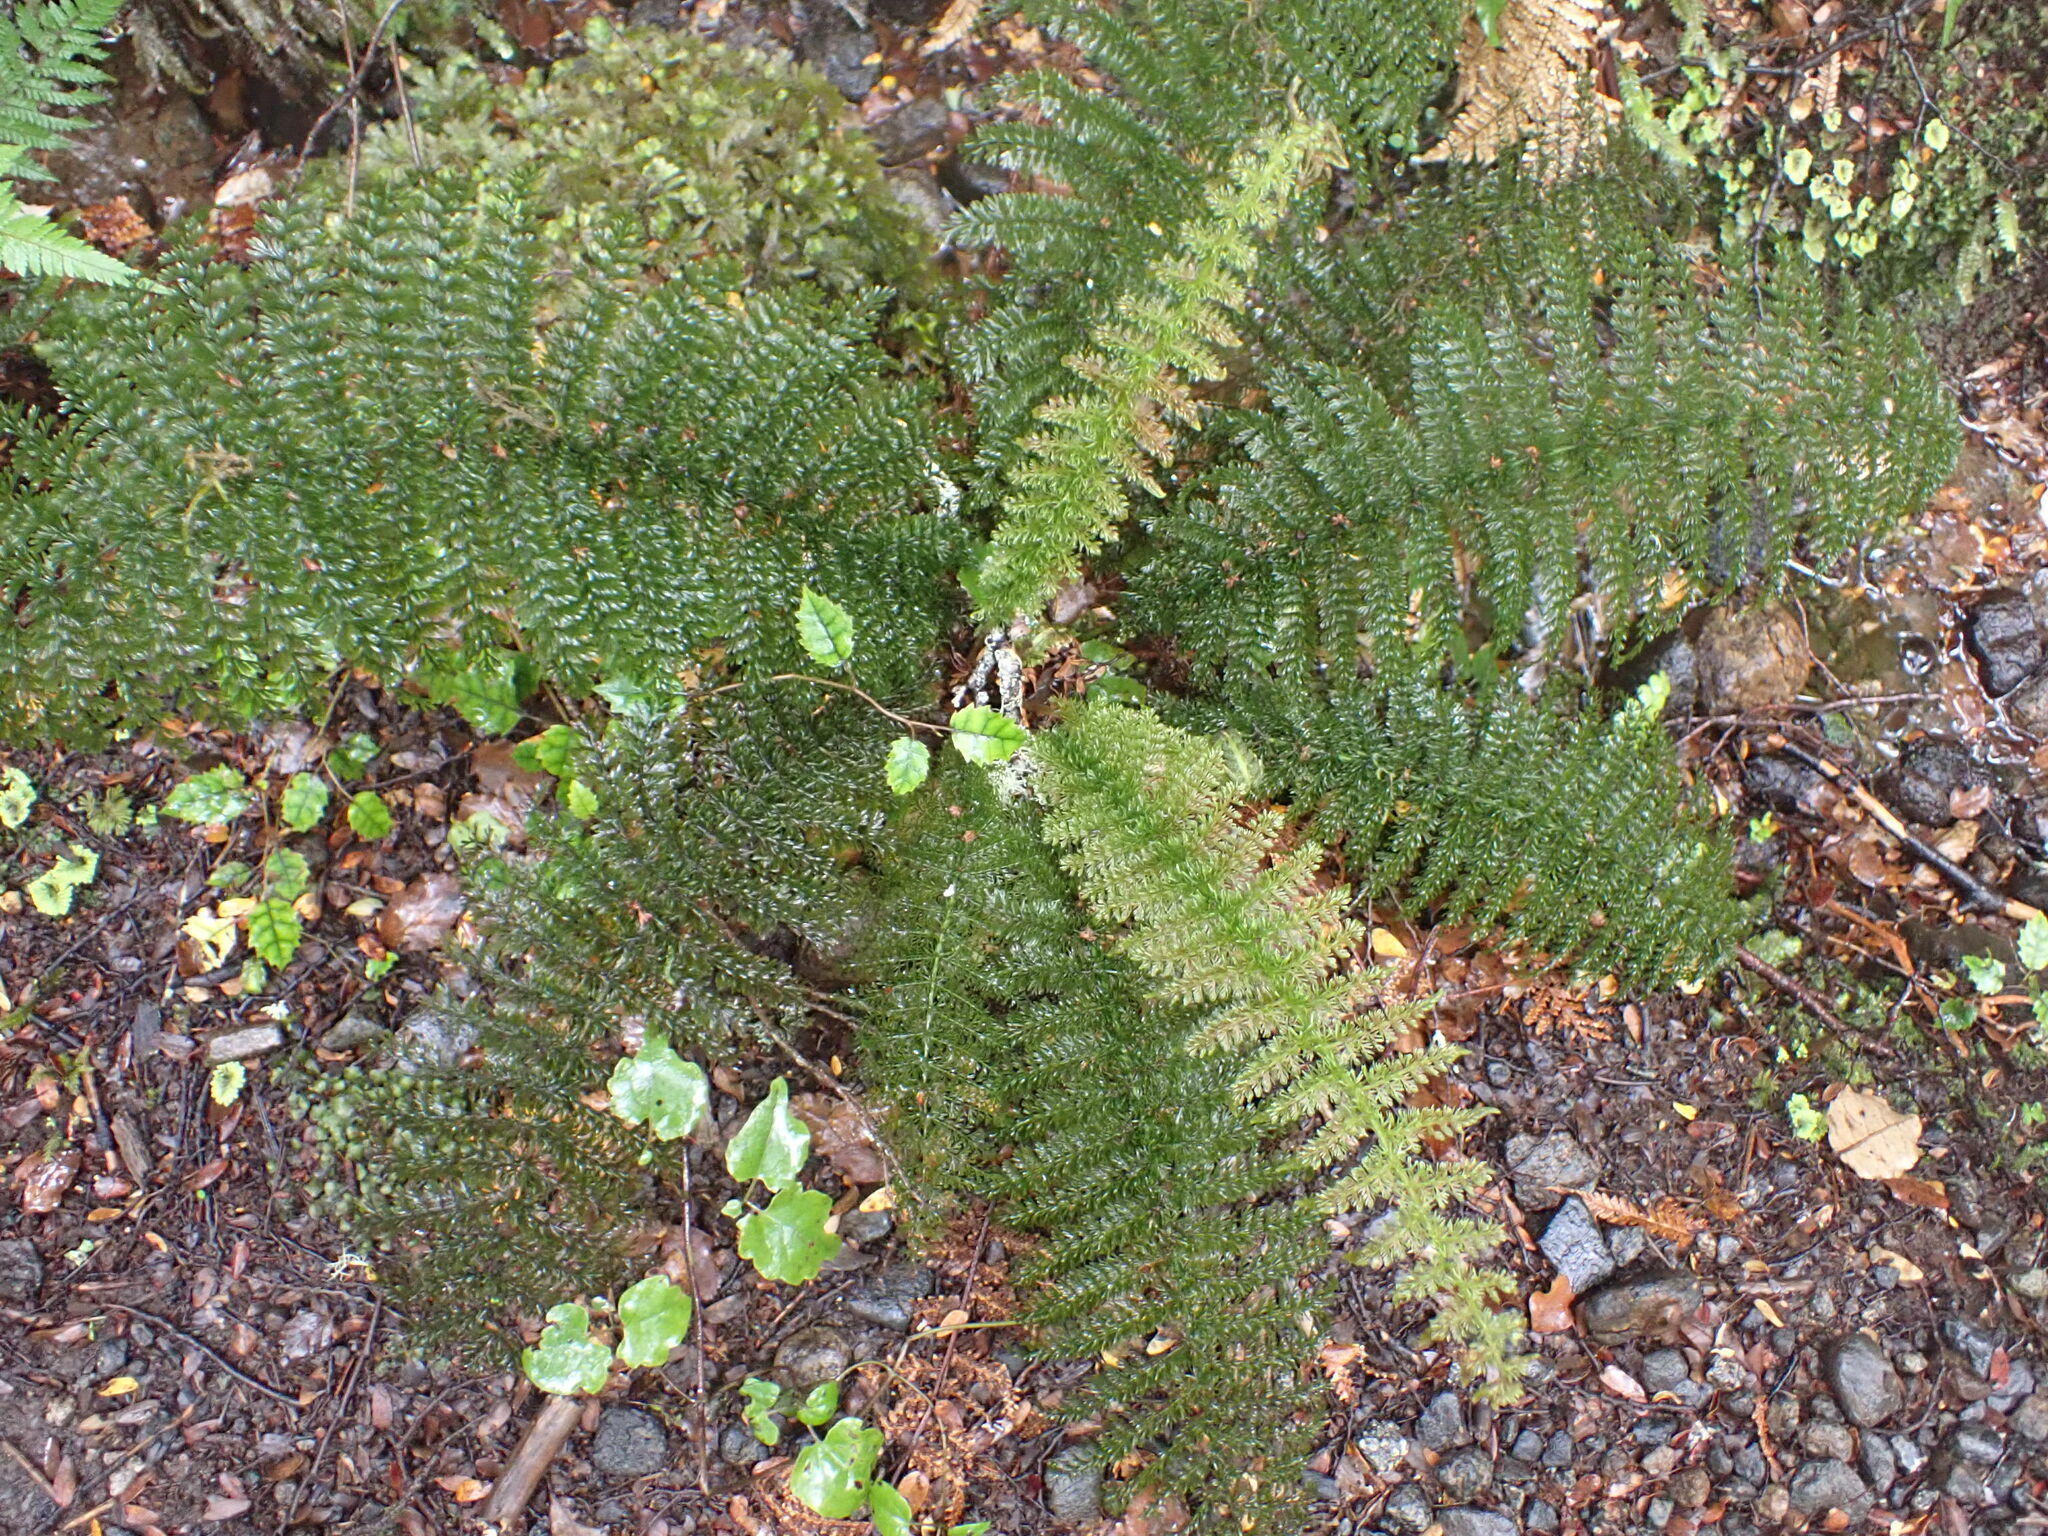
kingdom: Plantae
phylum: Tracheophyta
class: Polypodiopsida
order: Osmundales
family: Osmundaceae
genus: Leptopteris
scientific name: Leptopteris superba
